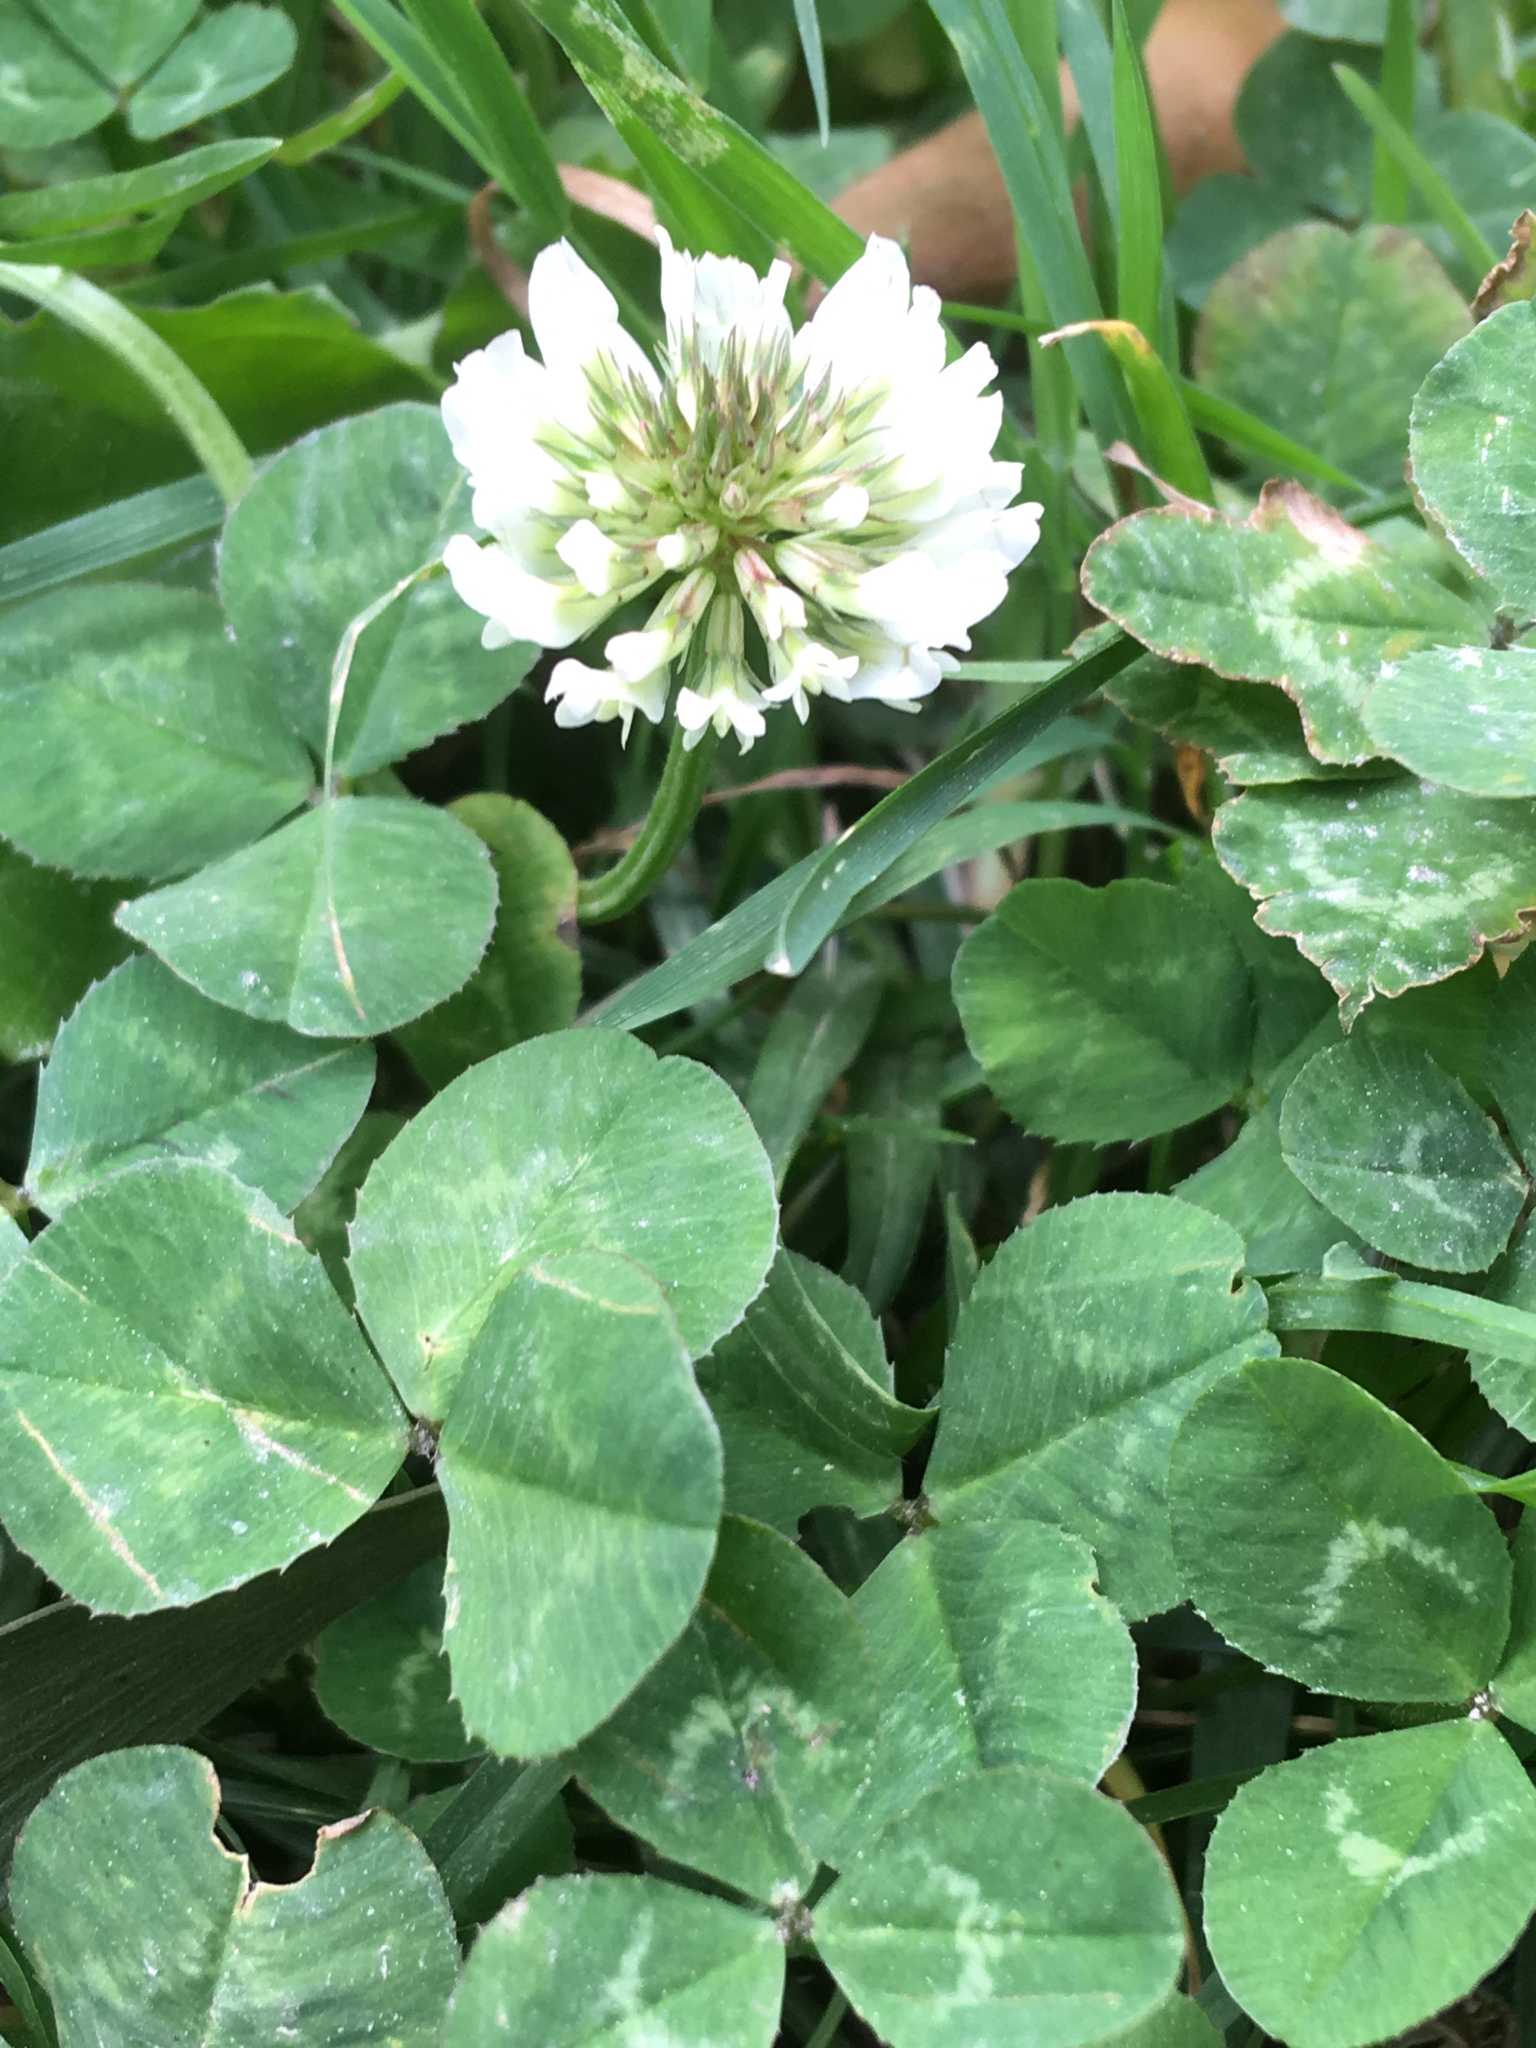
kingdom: Plantae
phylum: Tracheophyta
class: Magnoliopsida
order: Fabales
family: Fabaceae
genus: Trifolium
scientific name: Trifolium repens
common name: White clover
